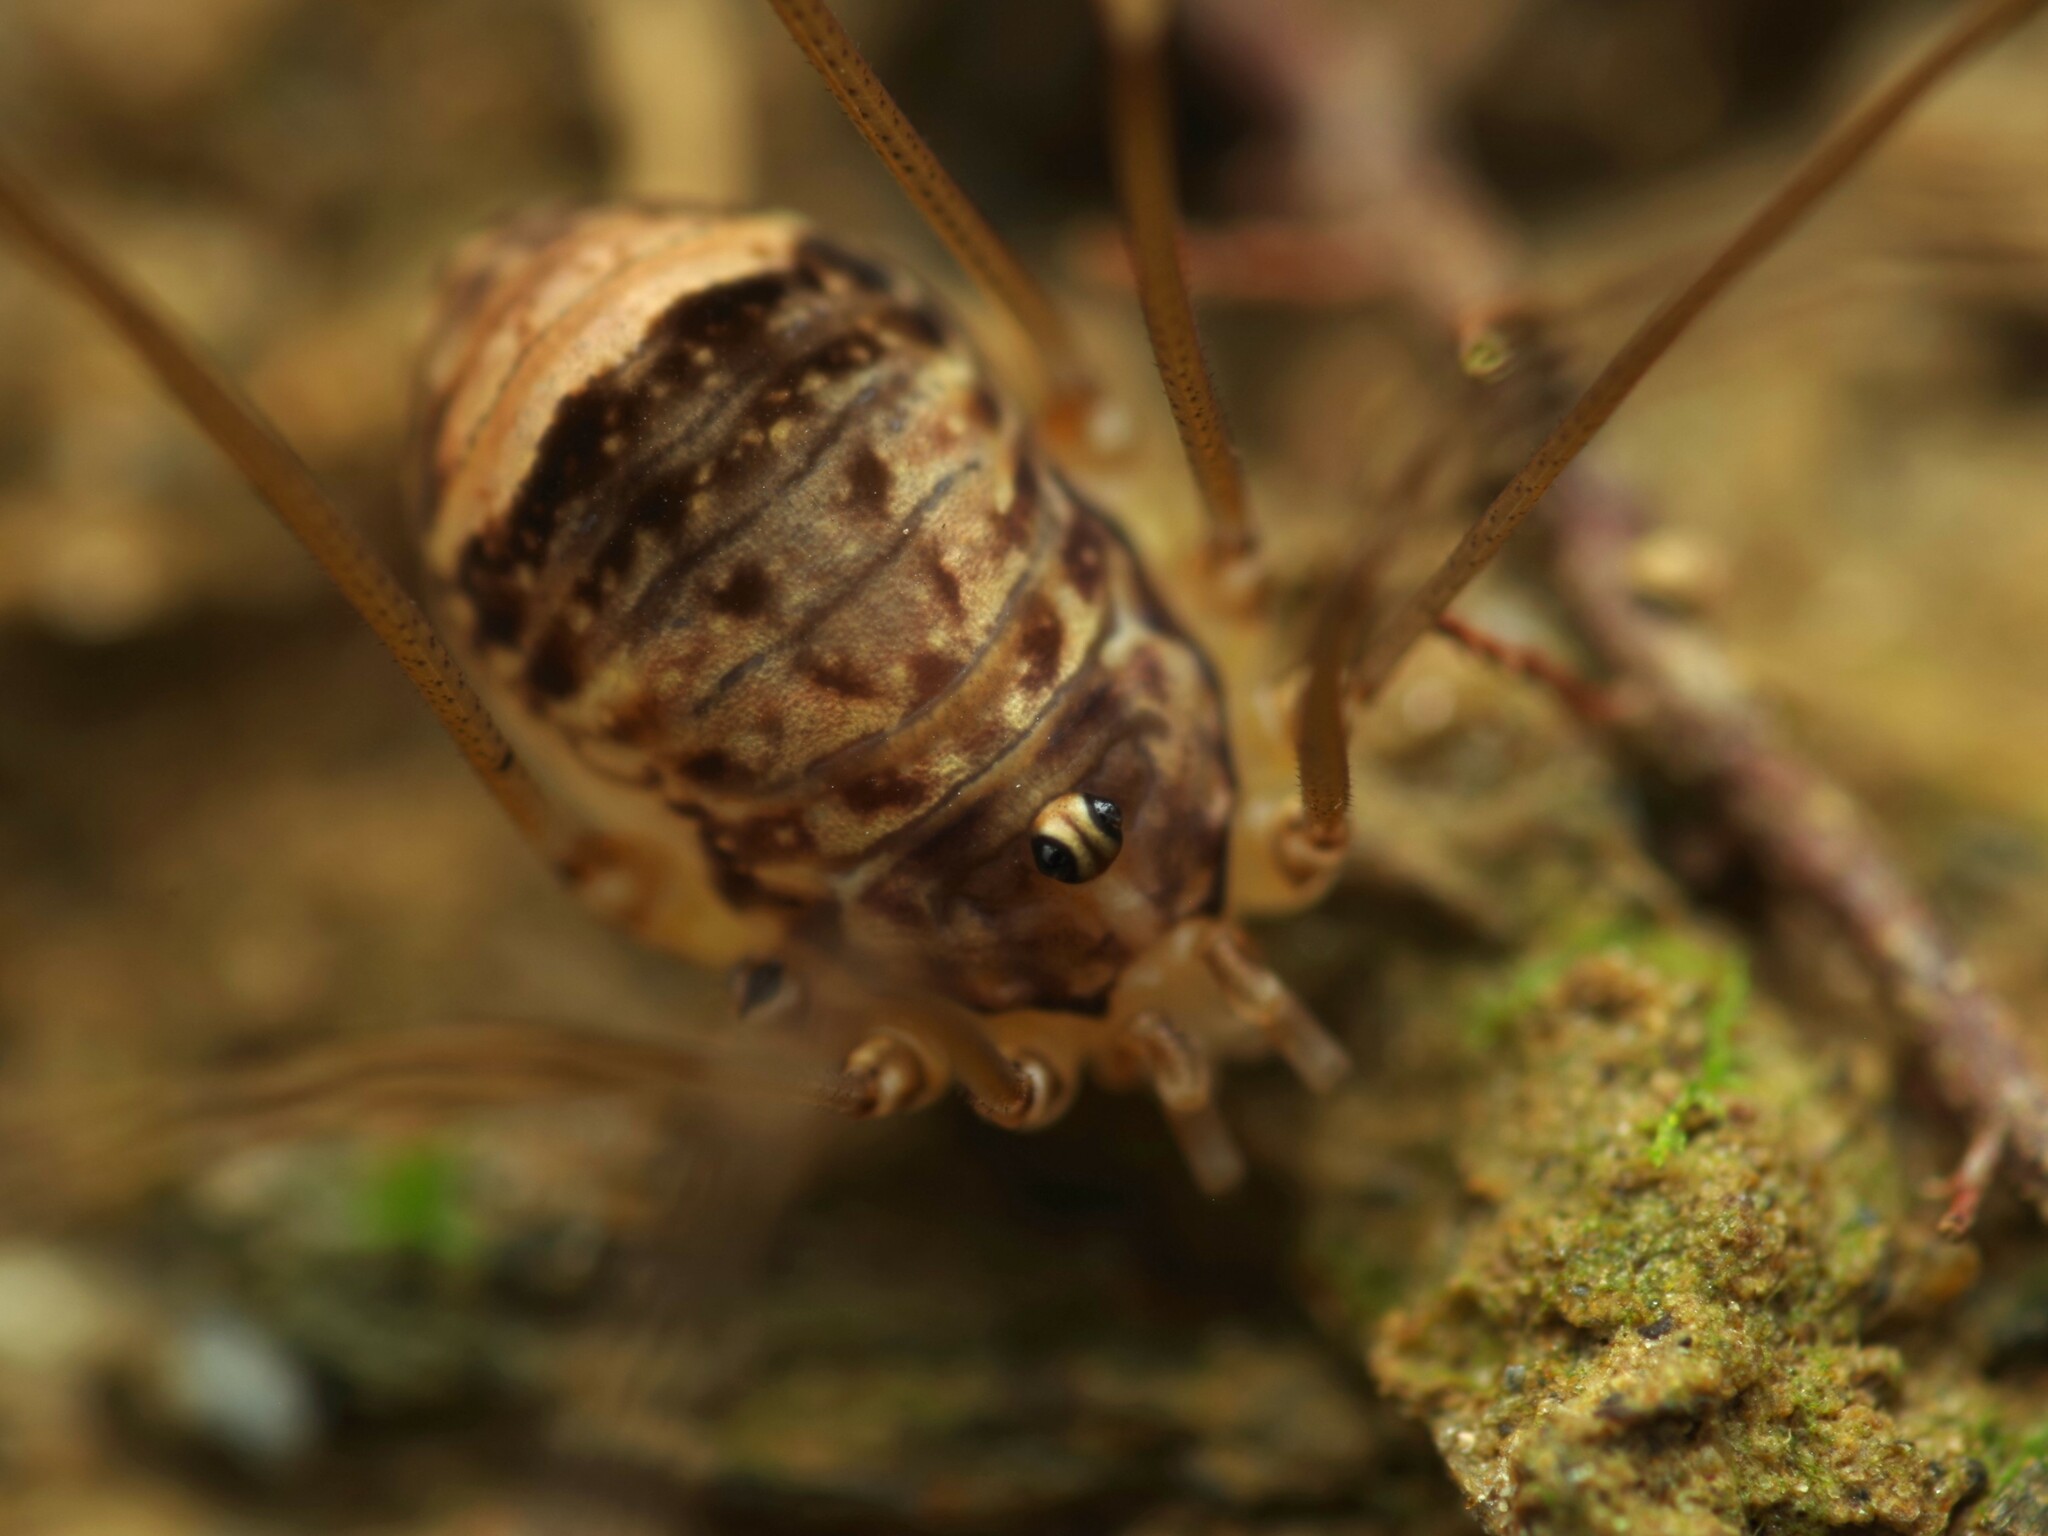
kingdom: Animalia
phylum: Arthropoda
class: Arachnida
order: Opiliones
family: Sclerosomatidae
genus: Leiobunum
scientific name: Leiobunum blackwalli
